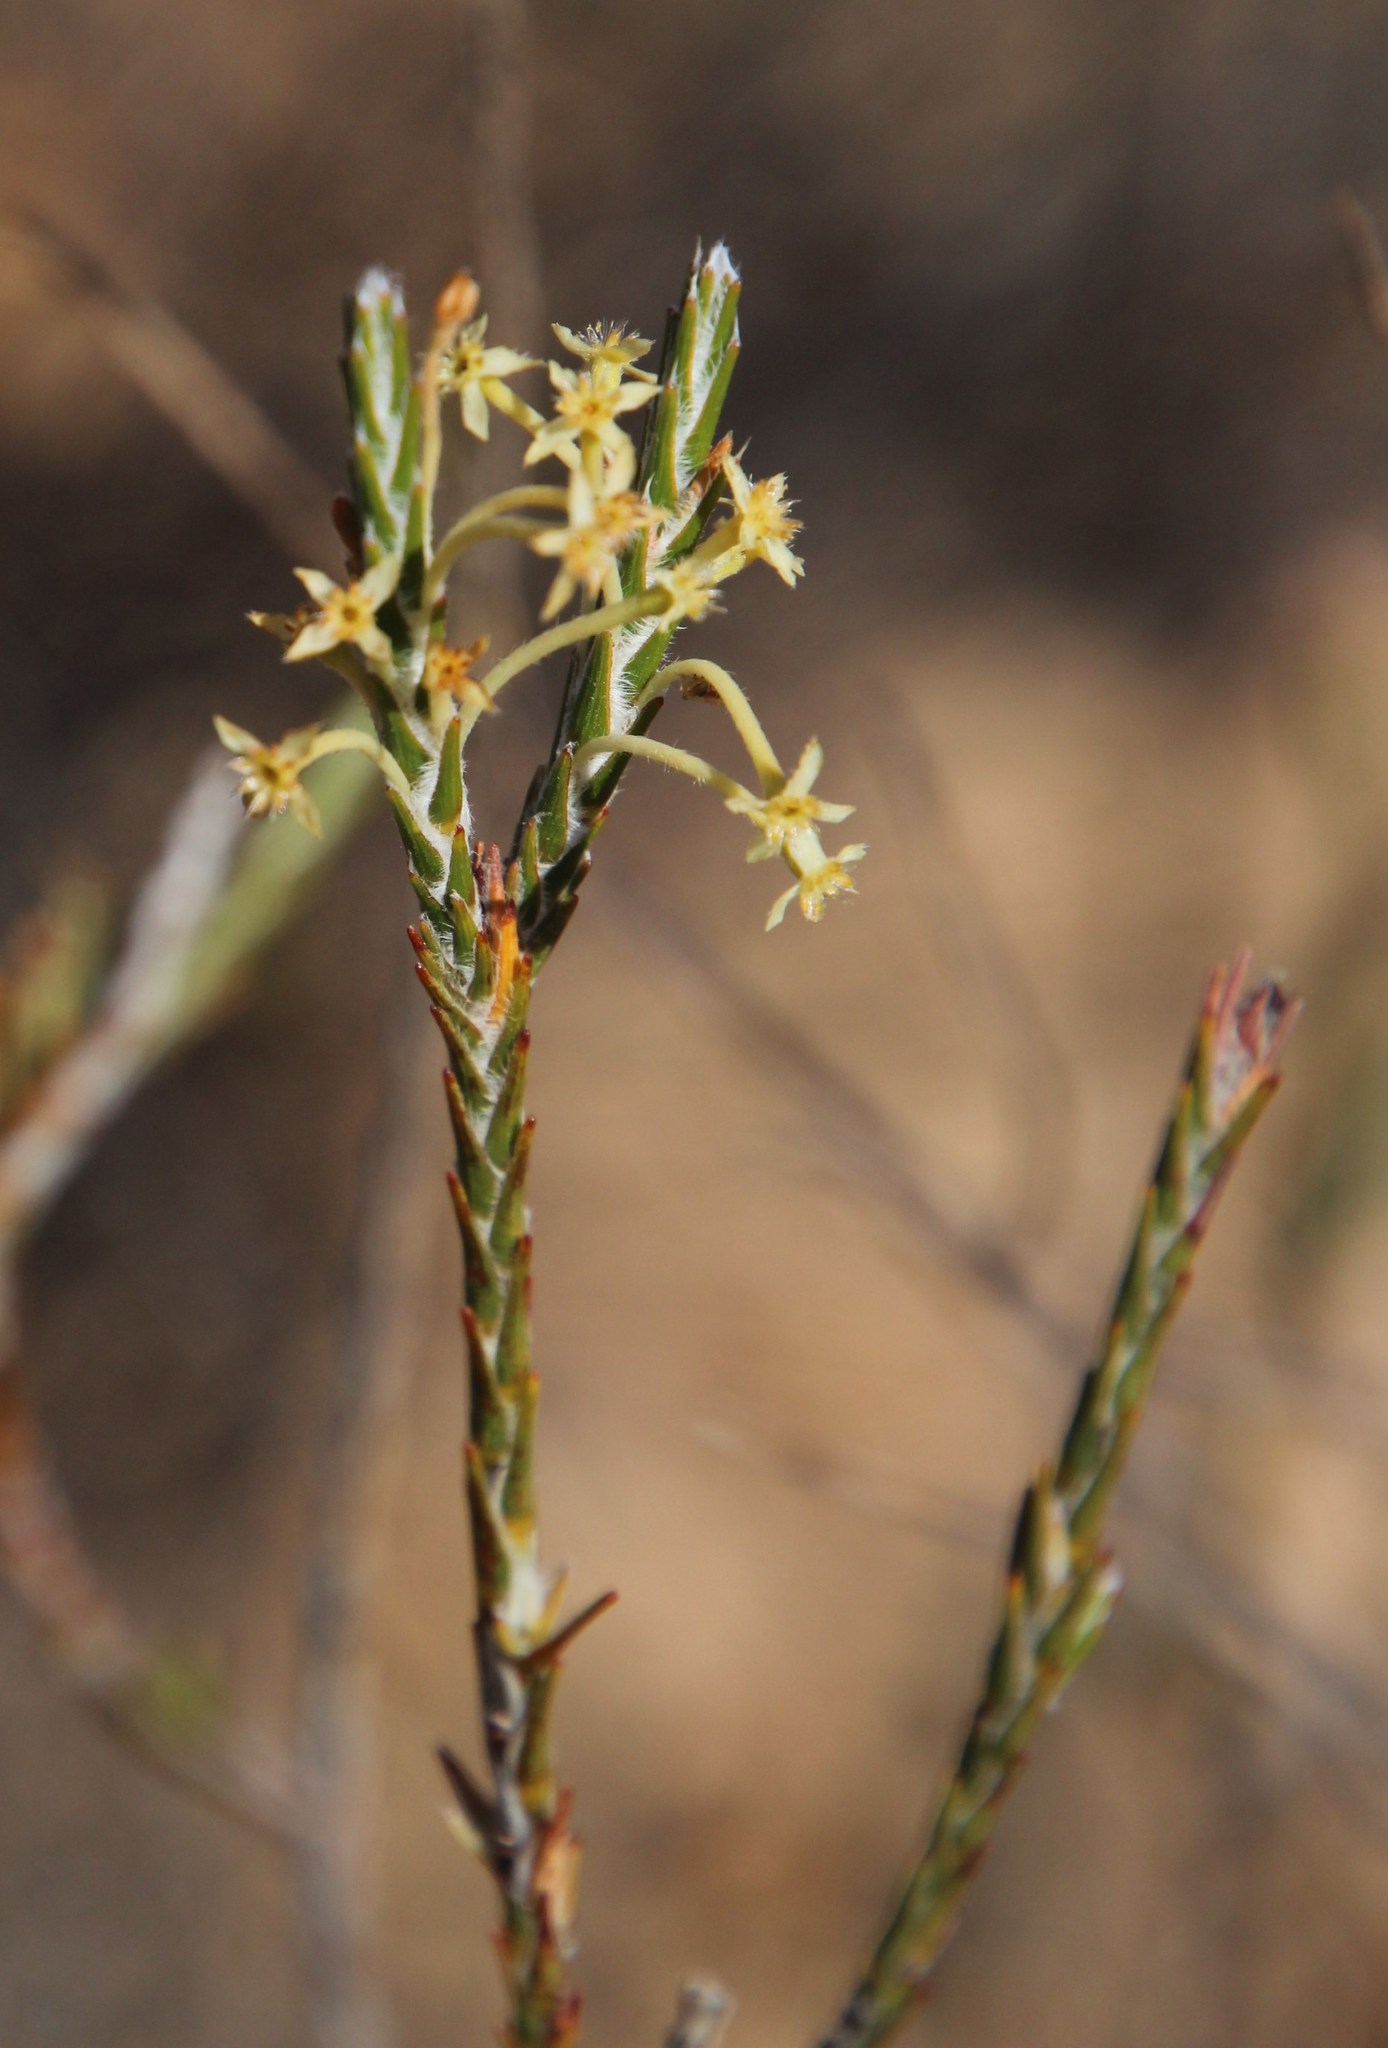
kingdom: Plantae
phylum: Tracheophyta
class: Magnoliopsida
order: Malvales
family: Thymelaeaceae
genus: Struthiola
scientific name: Struthiola ciliata
